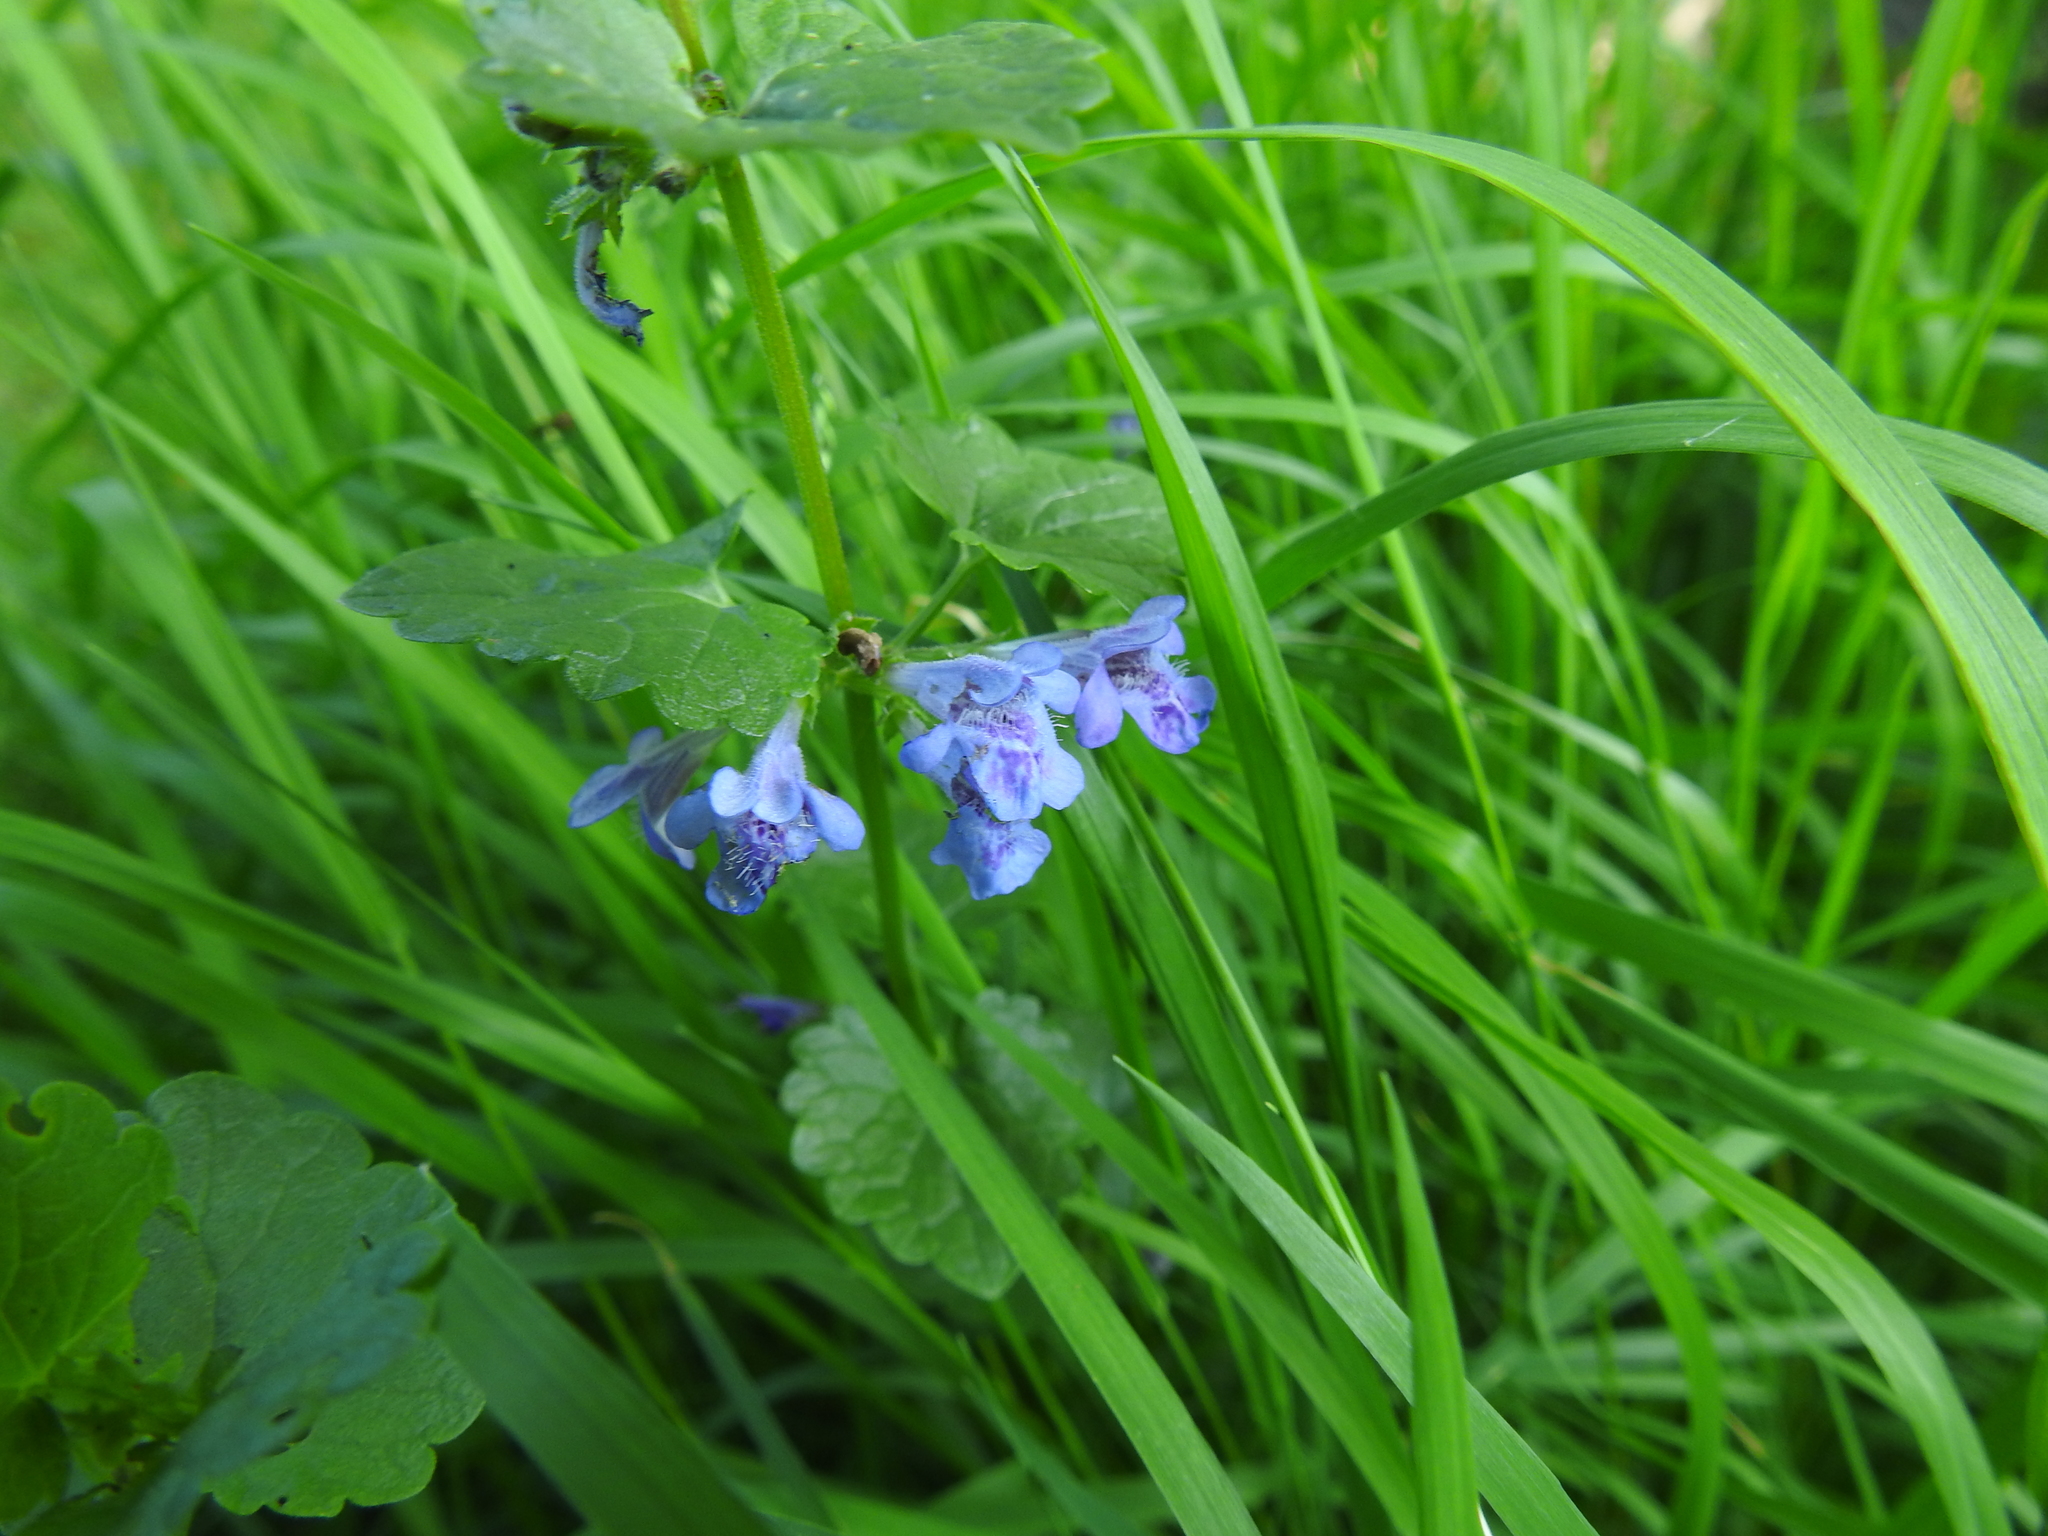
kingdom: Plantae
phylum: Tracheophyta
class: Magnoliopsida
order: Lamiales
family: Lamiaceae
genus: Glechoma
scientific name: Glechoma hederacea
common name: Ground ivy
